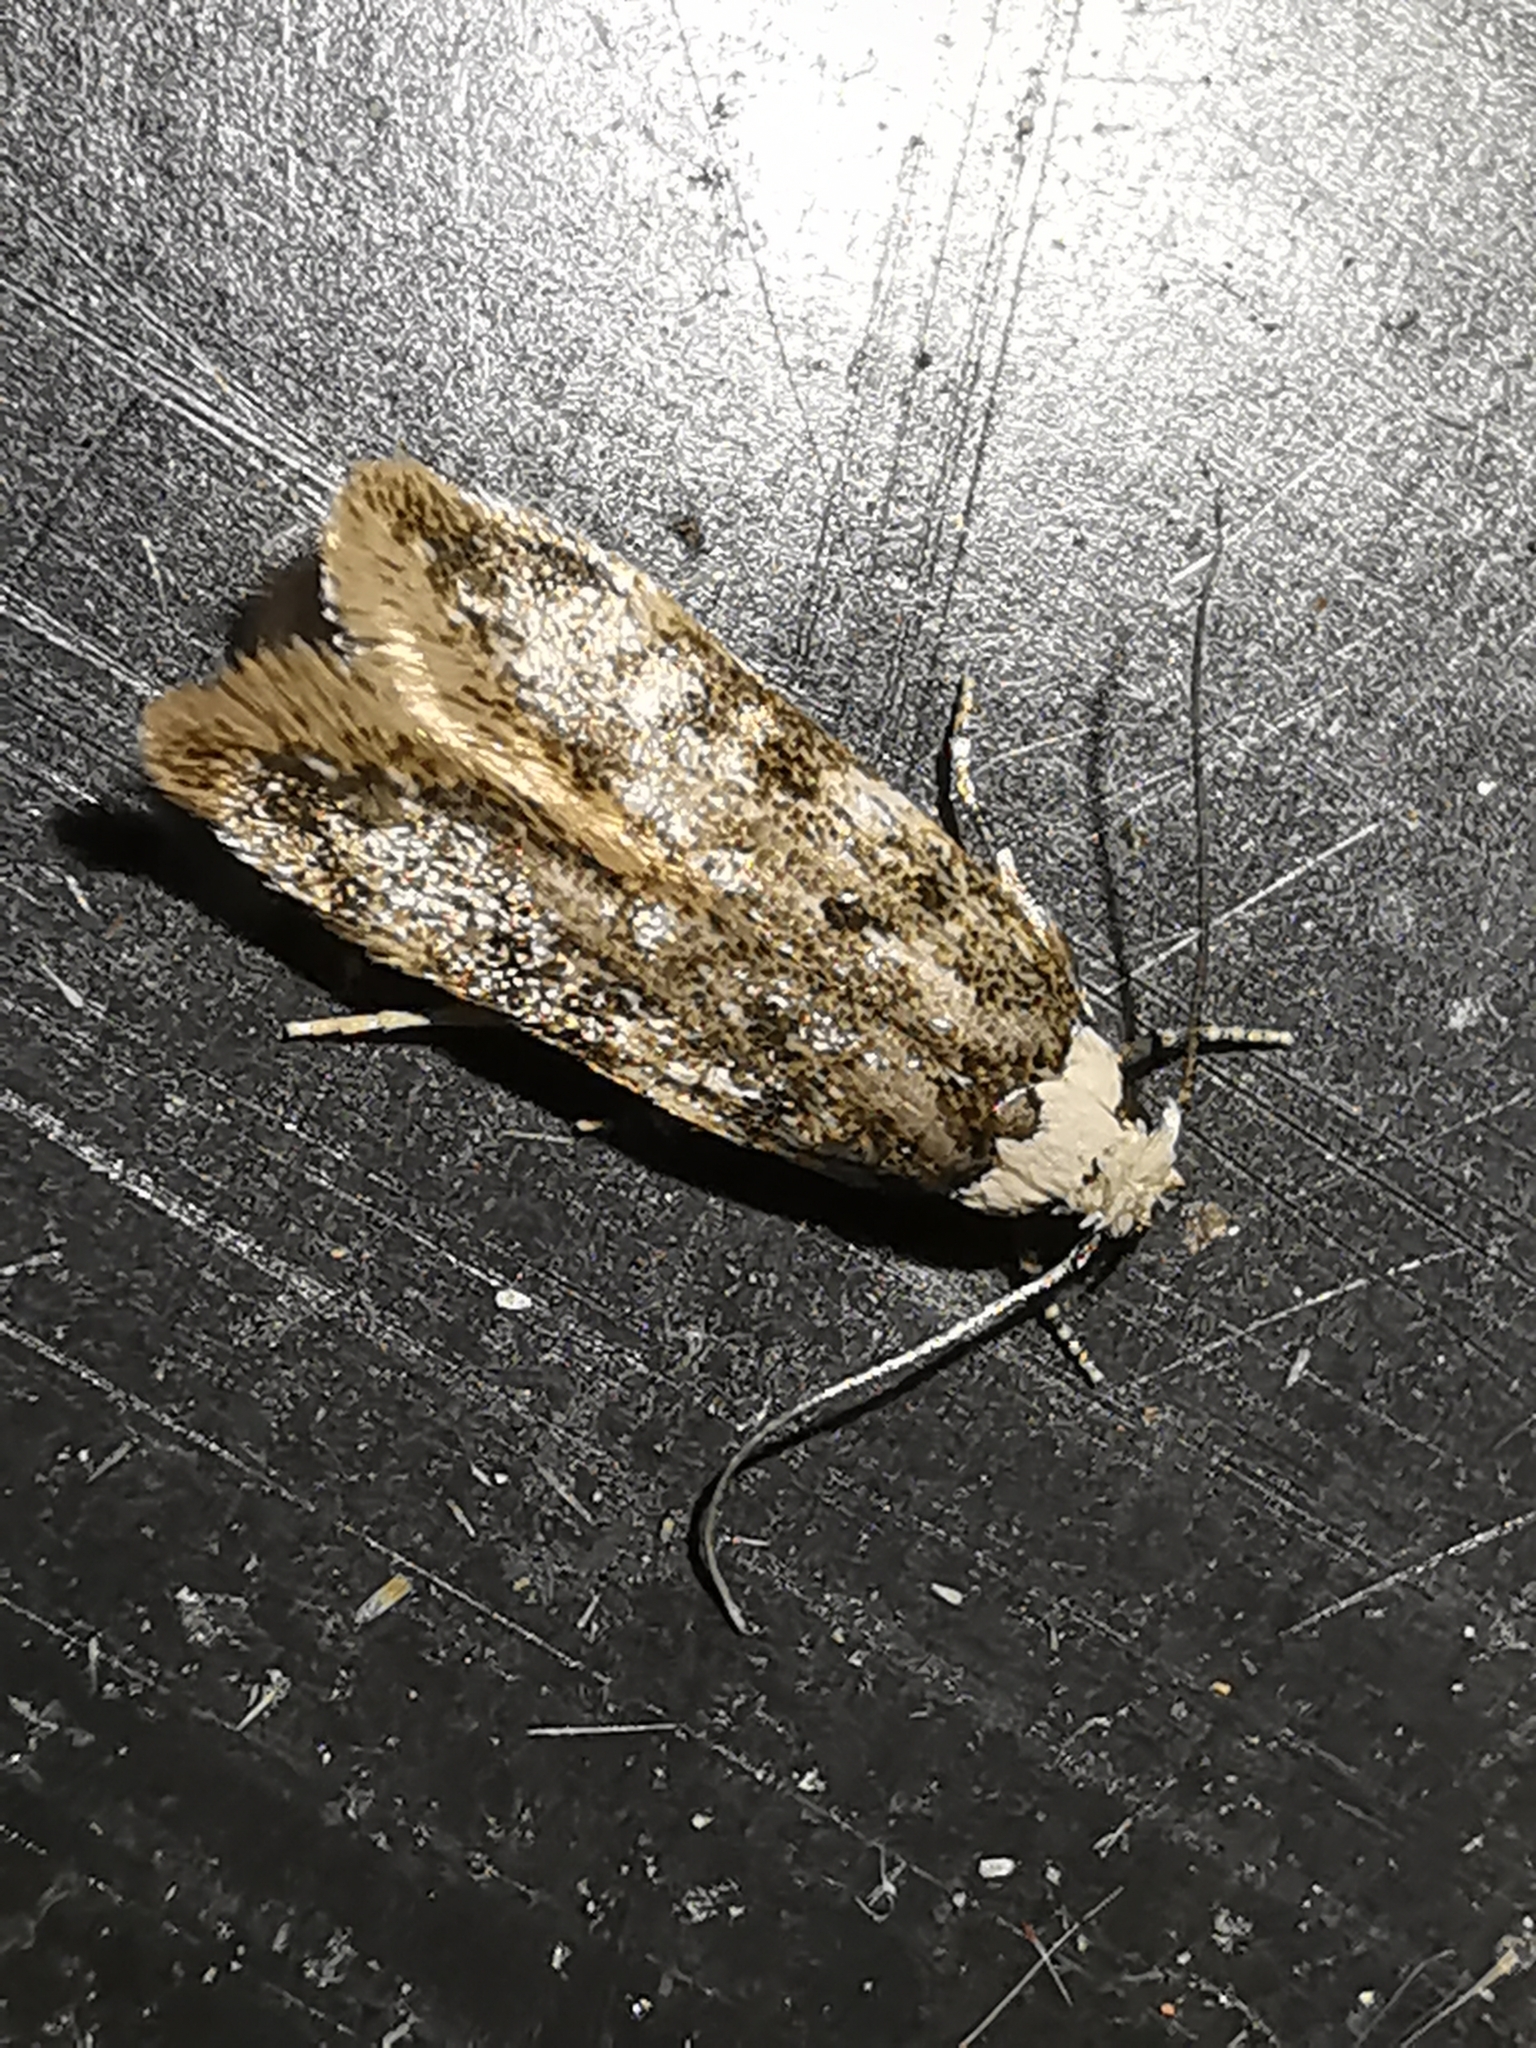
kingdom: Animalia
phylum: Arthropoda
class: Insecta
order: Lepidoptera
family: Oecophoridae
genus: Endrosis
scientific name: Endrosis sarcitrella
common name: White-shouldered house moth
